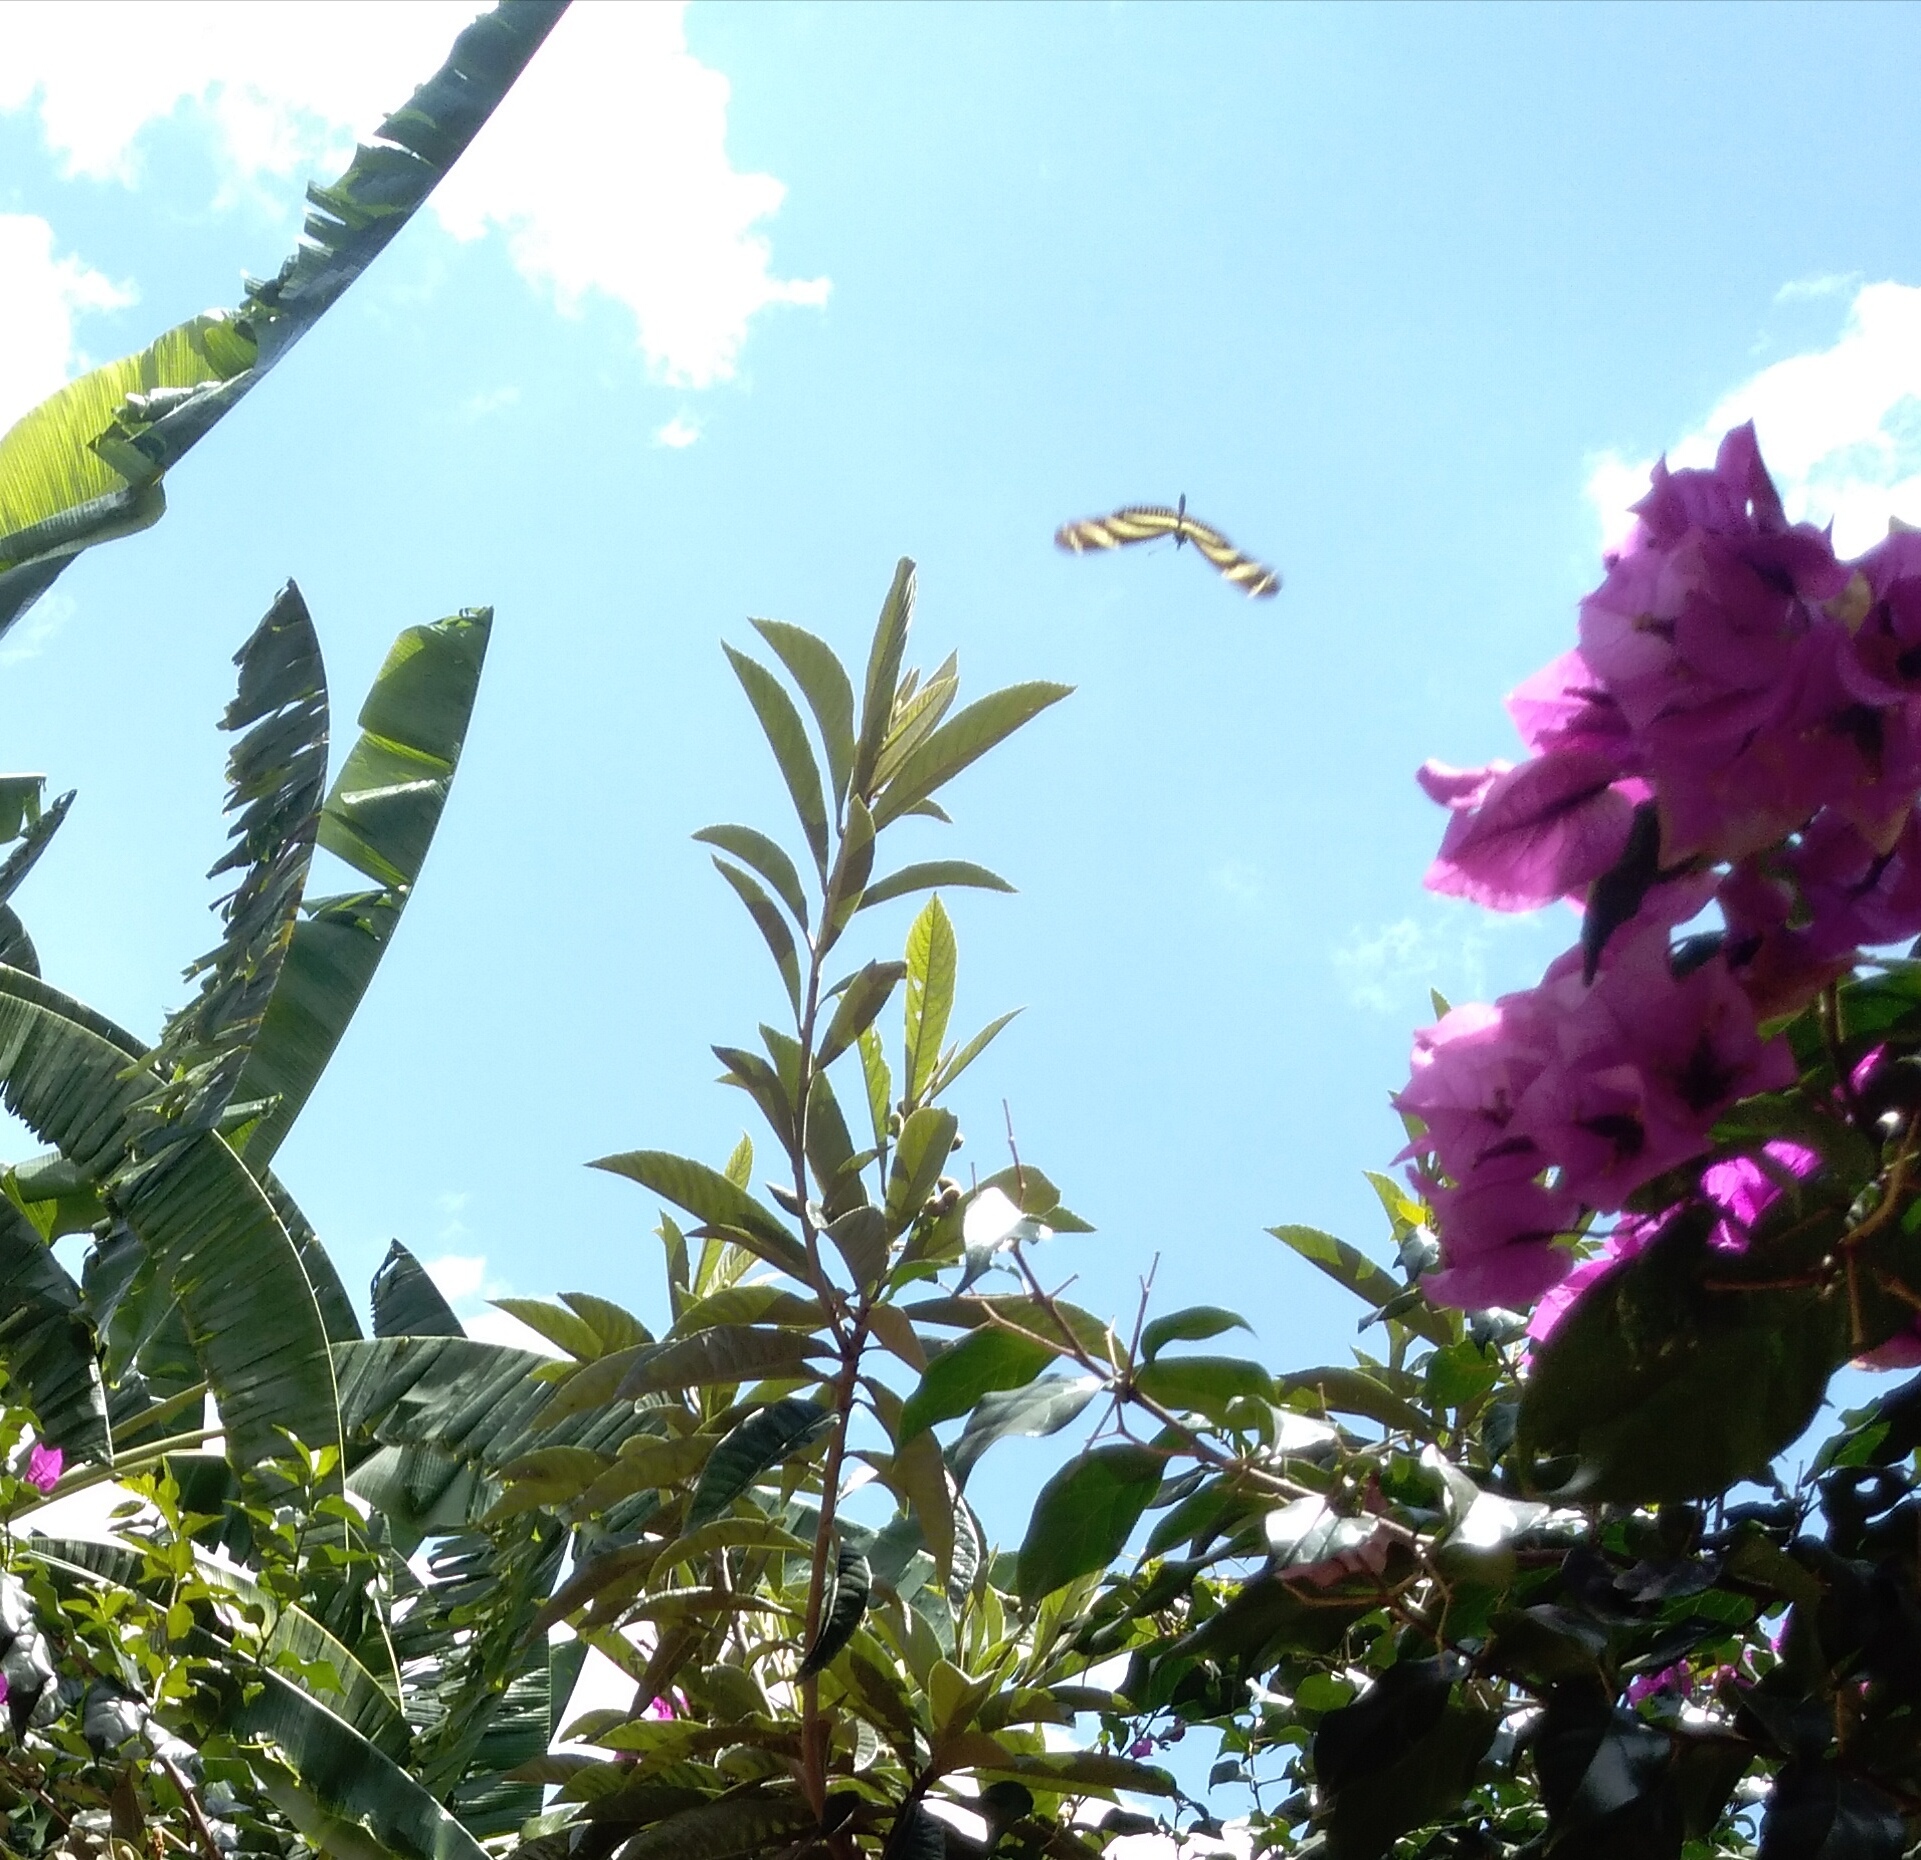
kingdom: Animalia
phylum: Arthropoda
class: Insecta
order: Lepidoptera
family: Nymphalidae
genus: Heliconius
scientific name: Heliconius charithonia
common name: Zebra long wing
